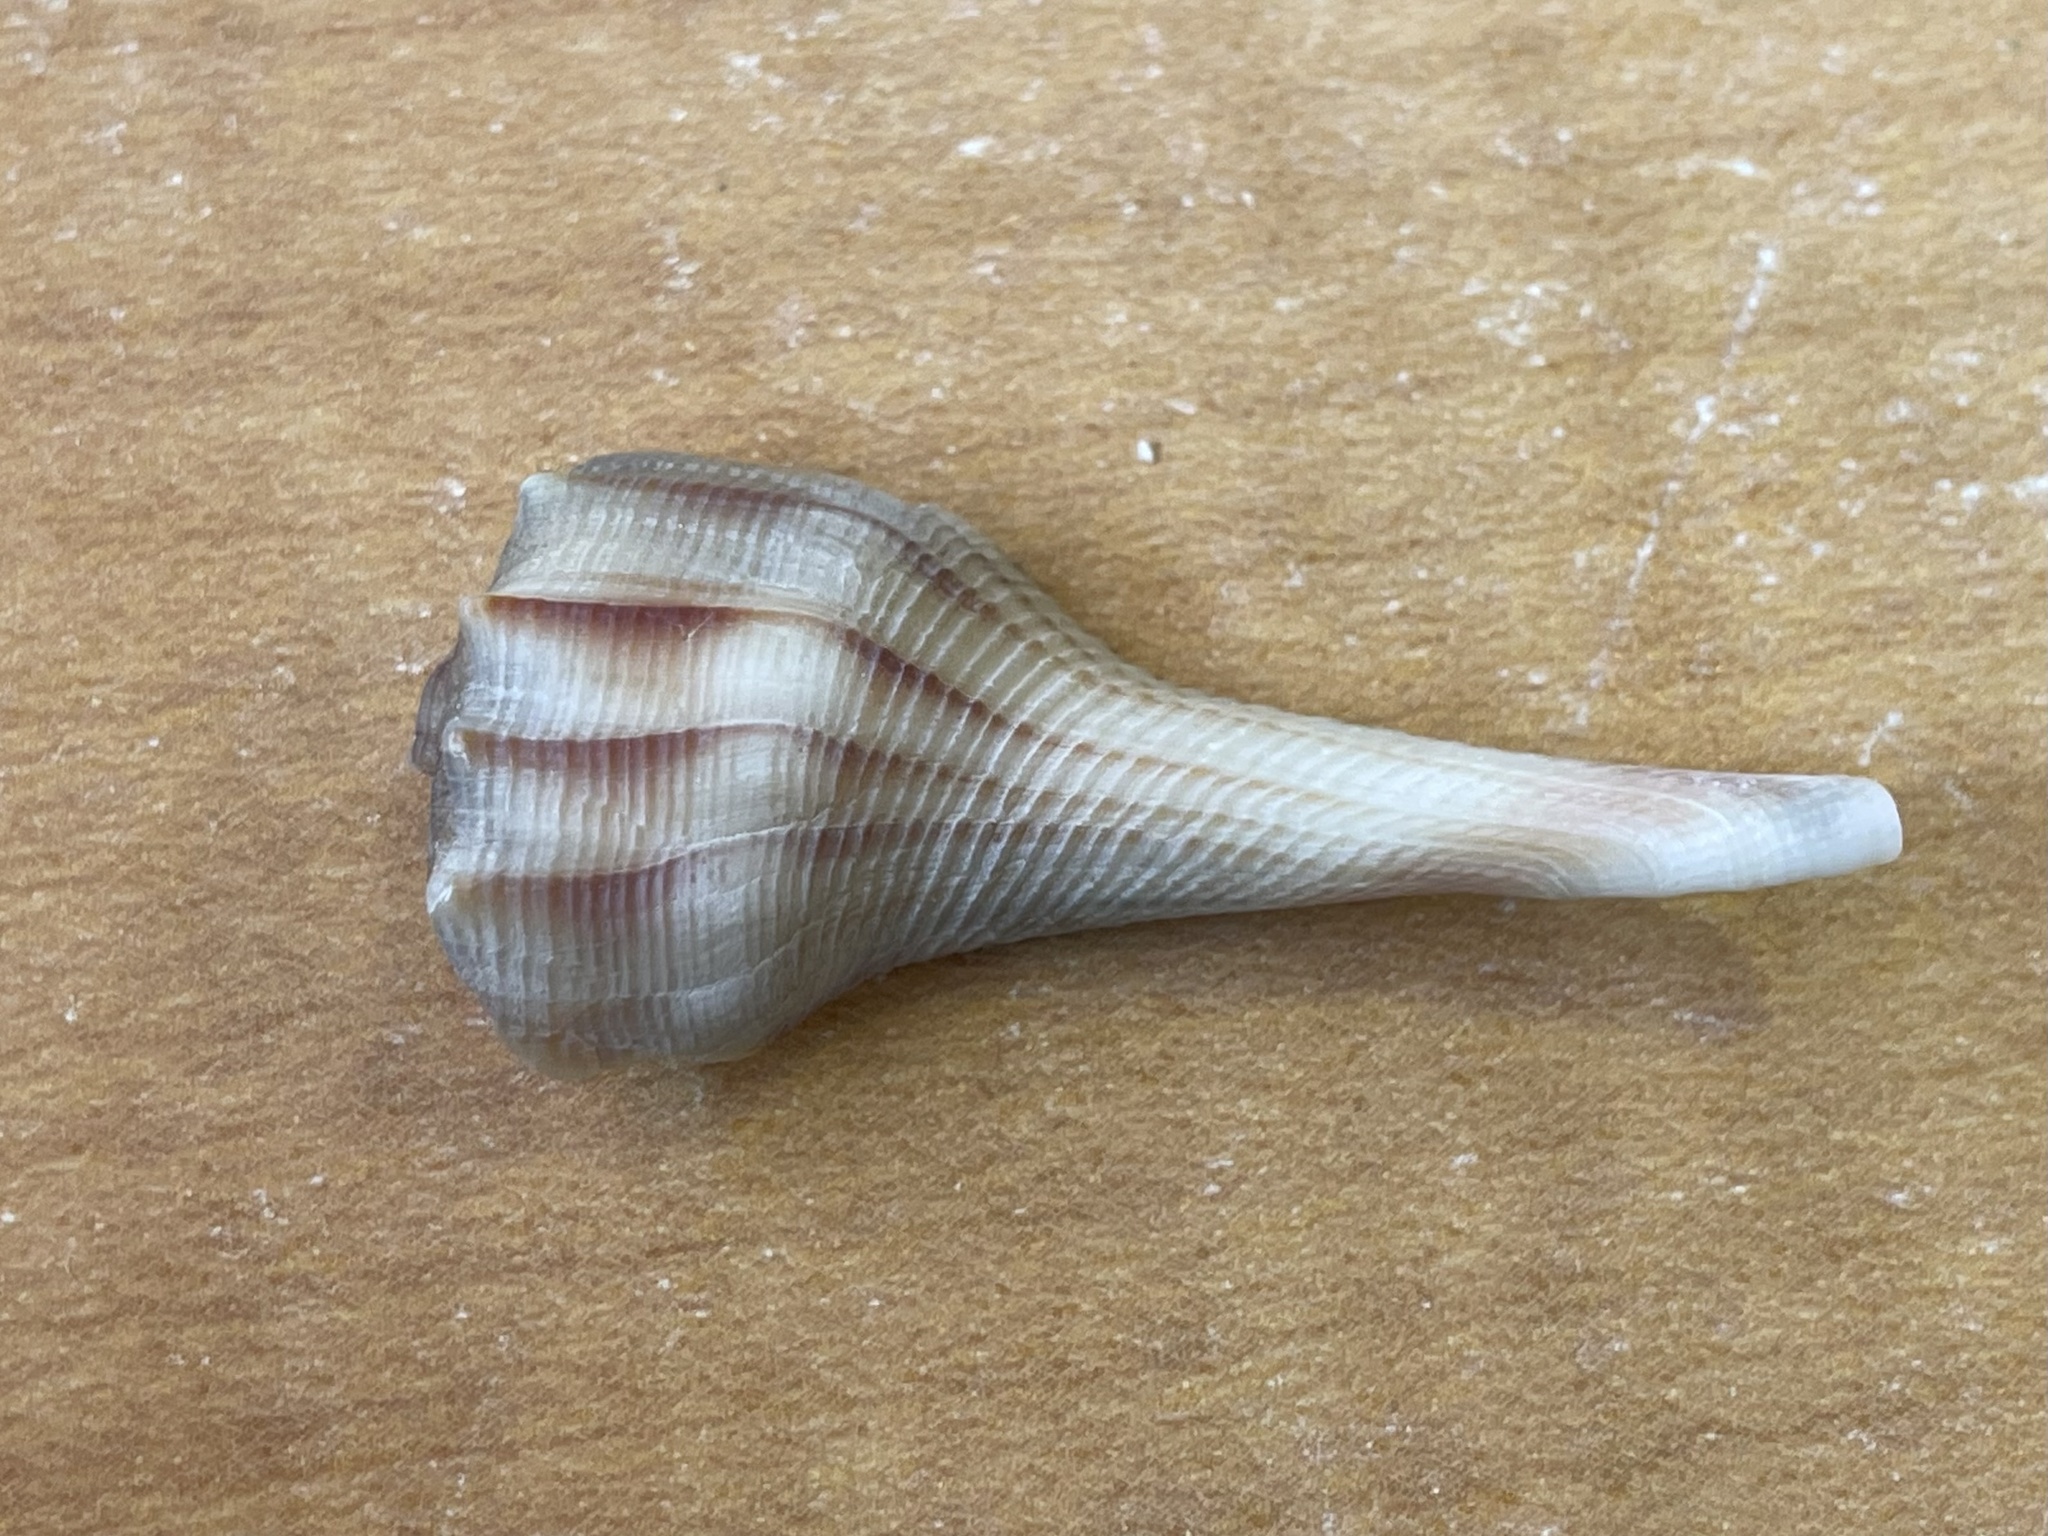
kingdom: Animalia
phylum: Mollusca
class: Gastropoda
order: Neogastropoda
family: Busyconidae
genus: Sinistrofulgur
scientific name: Sinistrofulgur pulleyi
